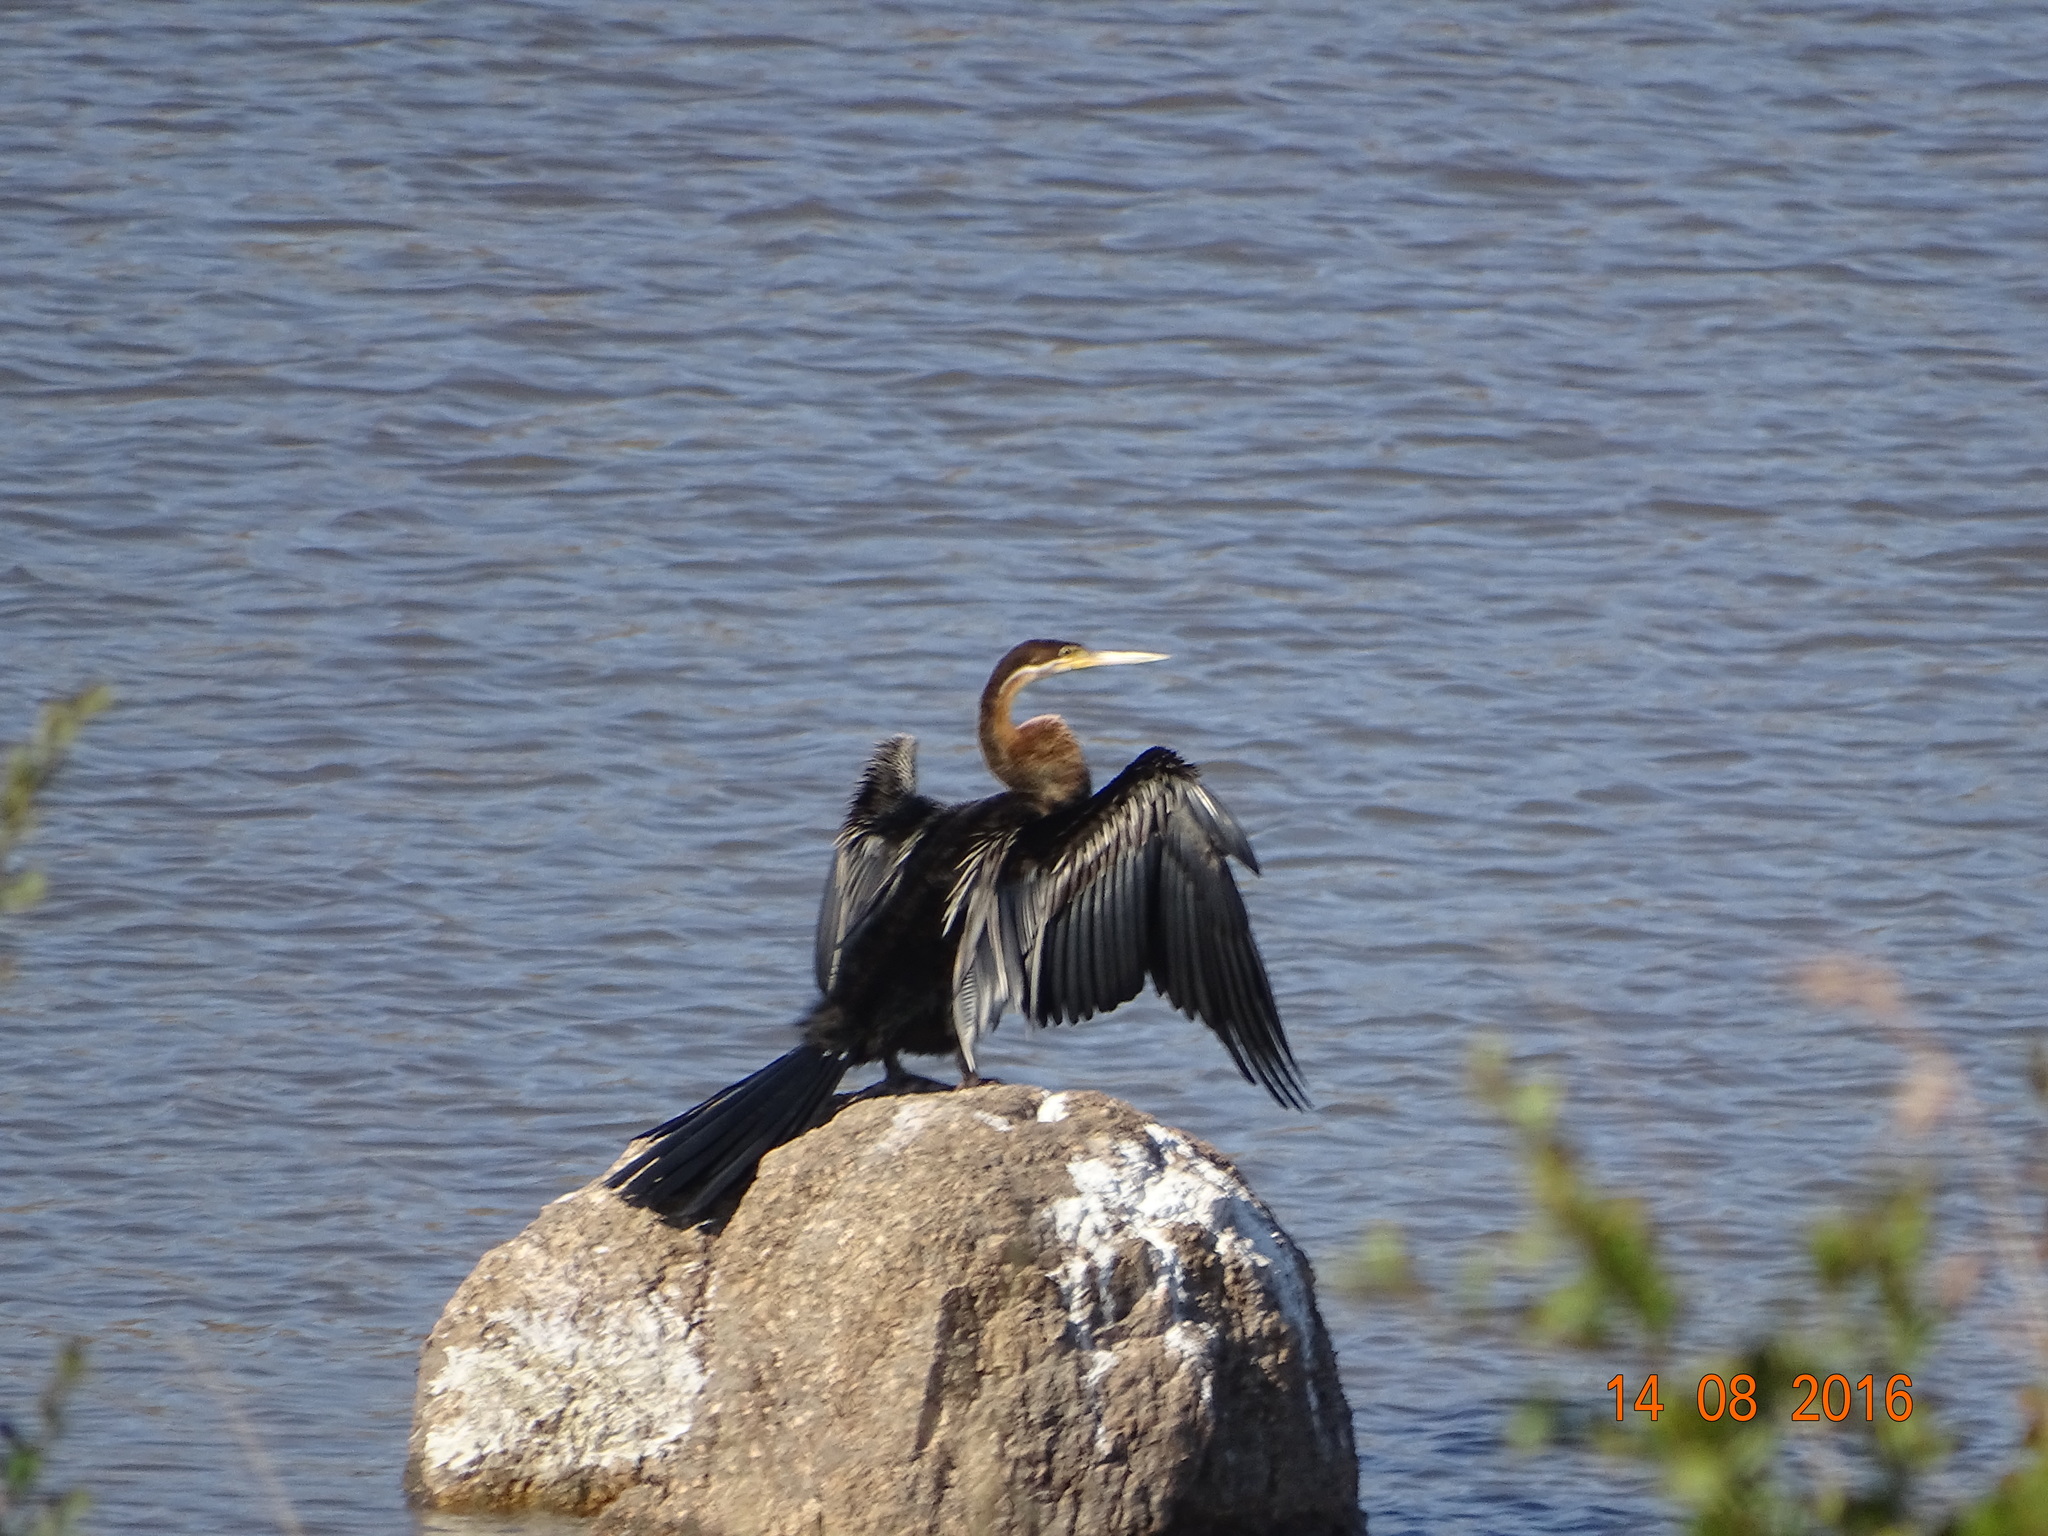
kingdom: Animalia
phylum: Chordata
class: Aves
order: Suliformes
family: Anhingidae
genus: Anhinga
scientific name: Anhinga rufa
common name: African darter
